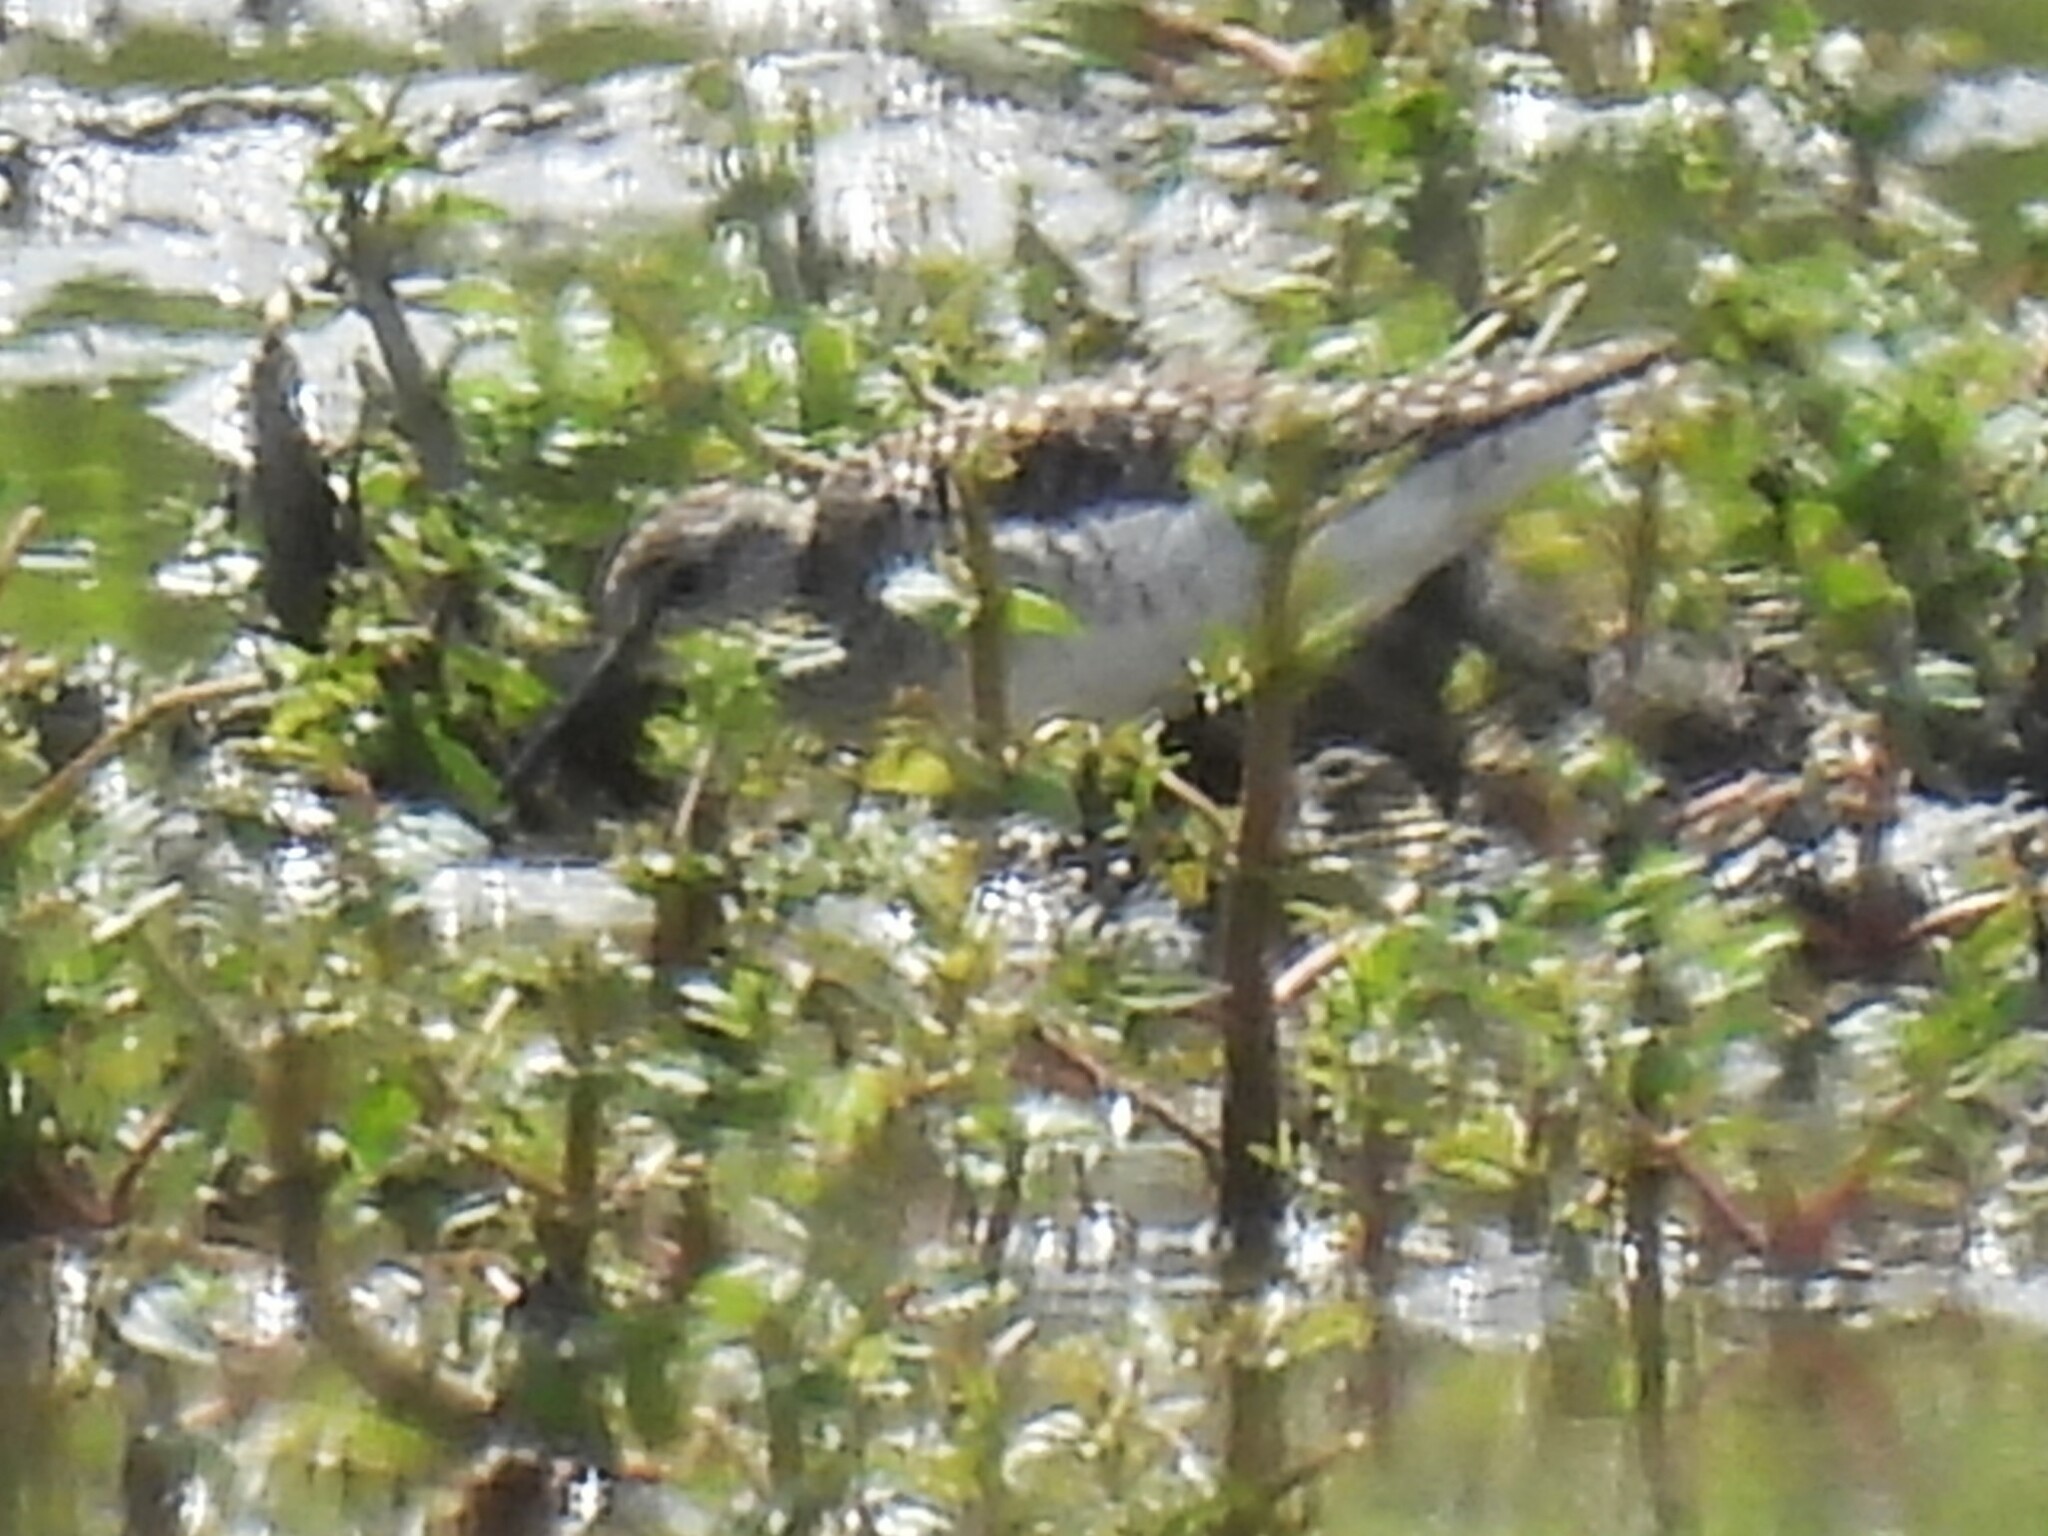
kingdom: Animalia
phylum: Chordata
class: Aves
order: Charadriiformes
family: Scolopacidae
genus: Tringa
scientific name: Tringa glareola
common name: Wood sandpiper
